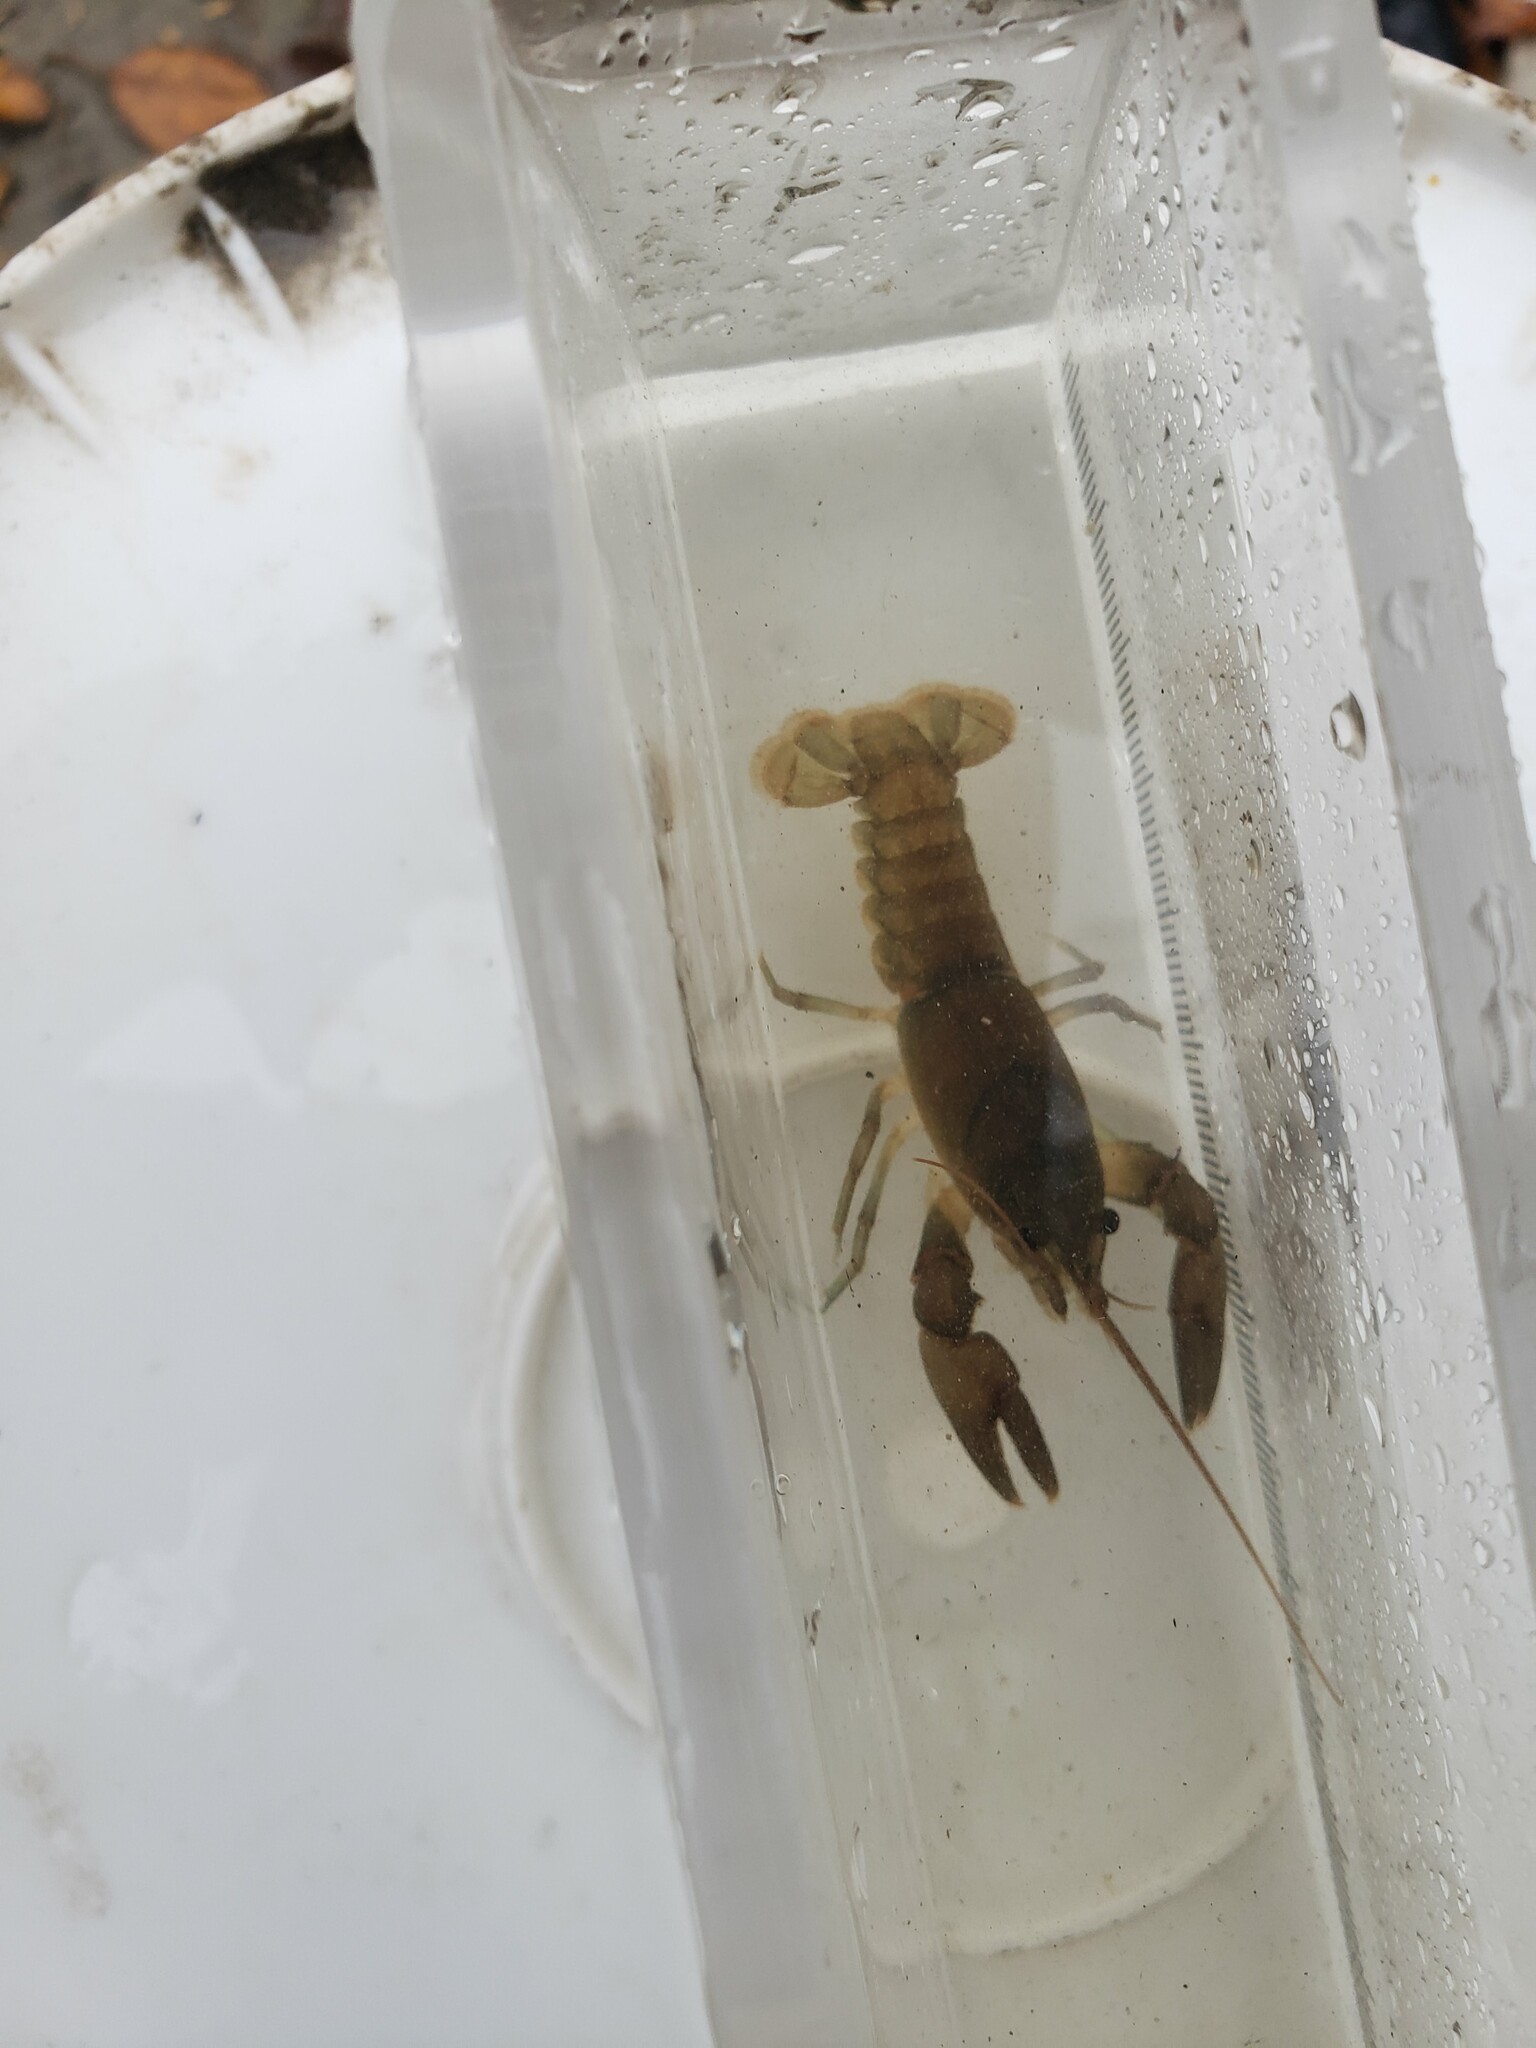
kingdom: Animalia
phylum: Arthropoda
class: Malacostraca
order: Decapoda
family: Cambaridae
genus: Cambarus
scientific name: Cambarus robustus
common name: Big water crayfish
